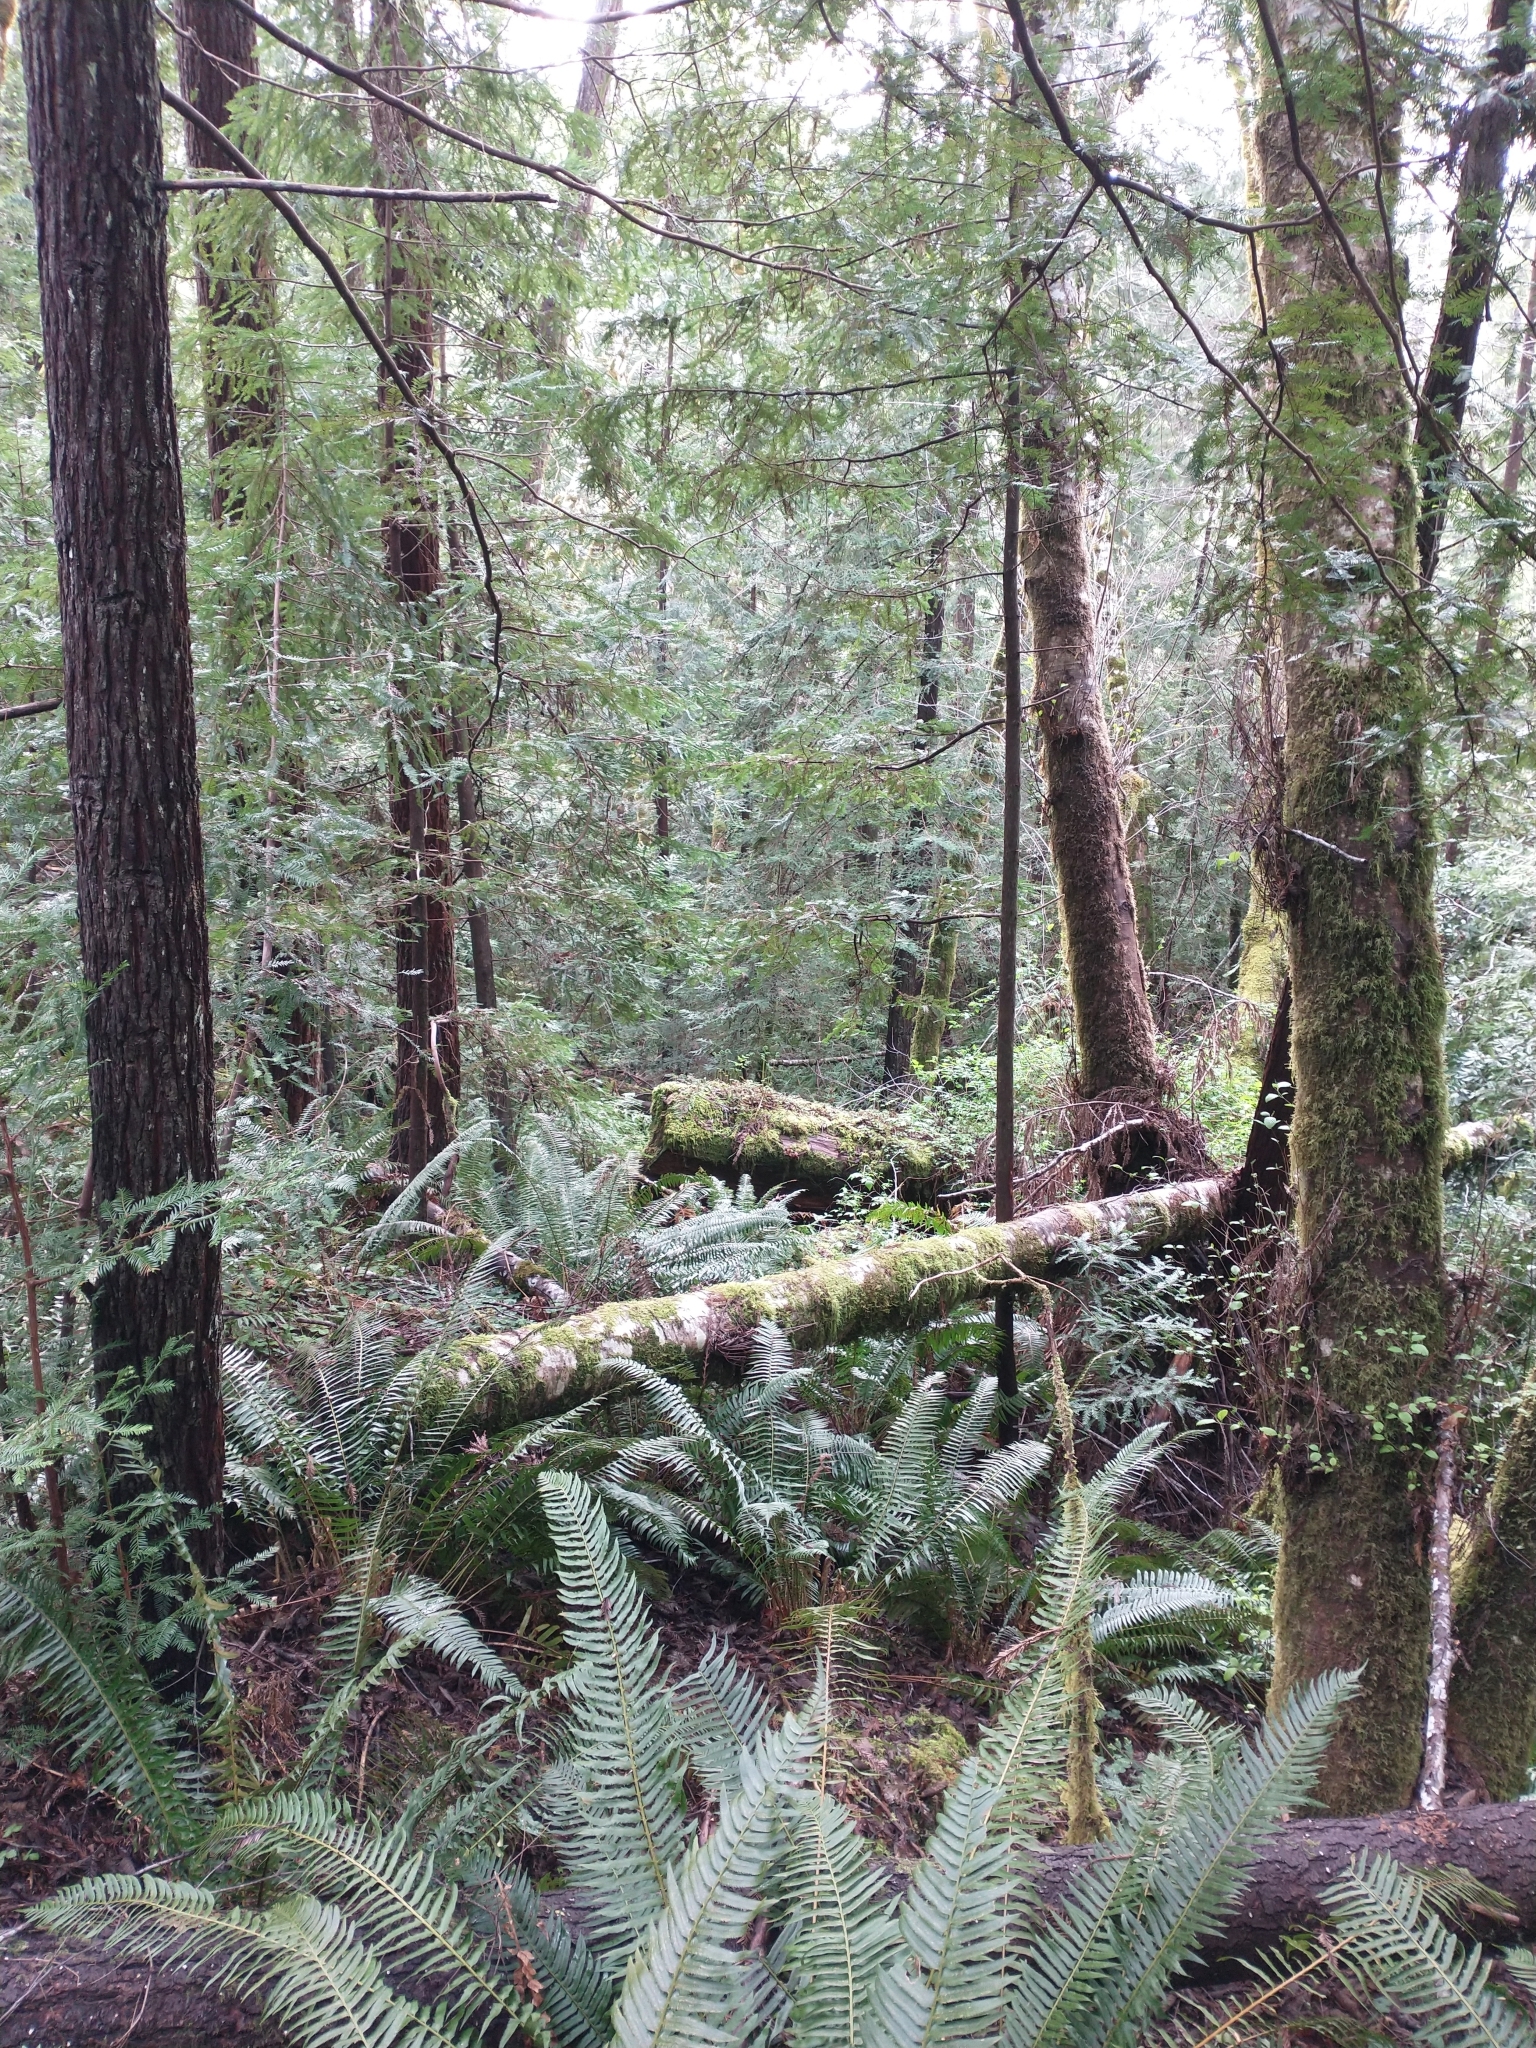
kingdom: Plantae
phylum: Tracheophyta
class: Polypodiopsida
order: Polypodiales
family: Dryopteridaceae
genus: Polystichum
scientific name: Polystichum munitum
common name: Western sword-fern
